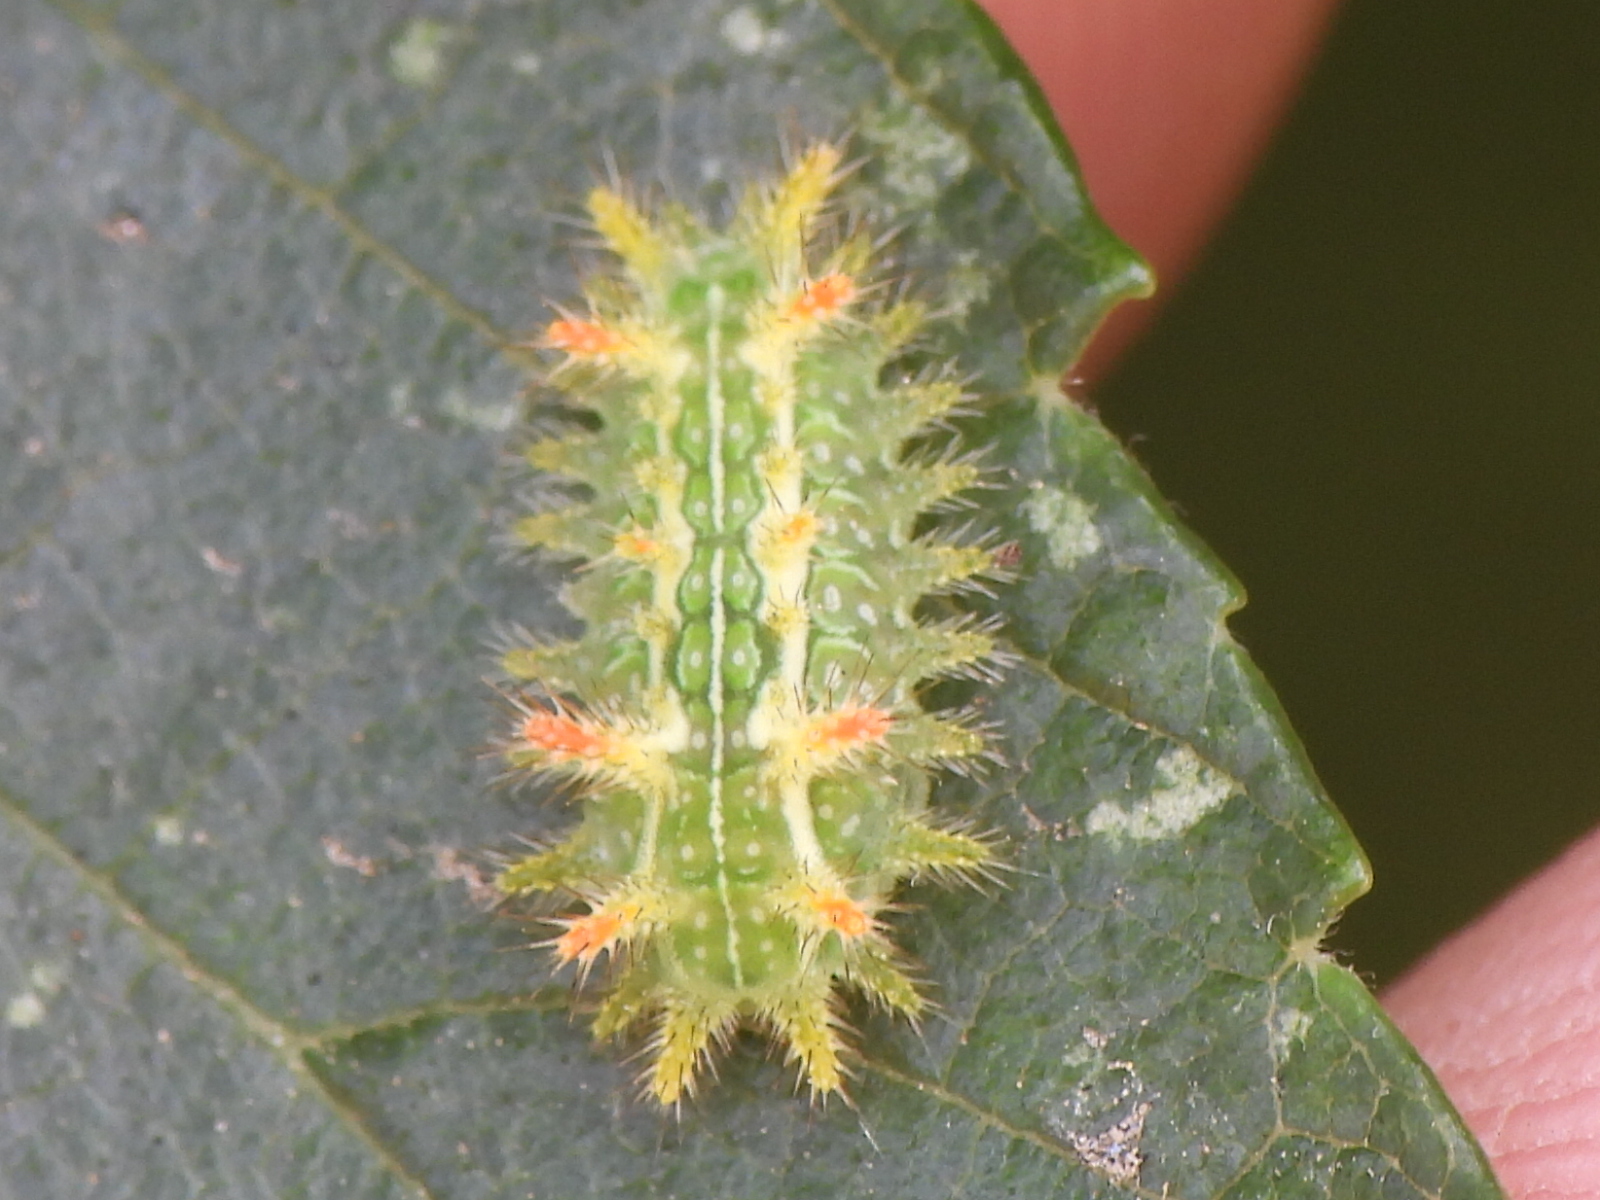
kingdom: Animalia
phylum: Arthropoda
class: Insecta
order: Lepidoptera
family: Limacodidae
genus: Euclea
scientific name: Euclea incisa
